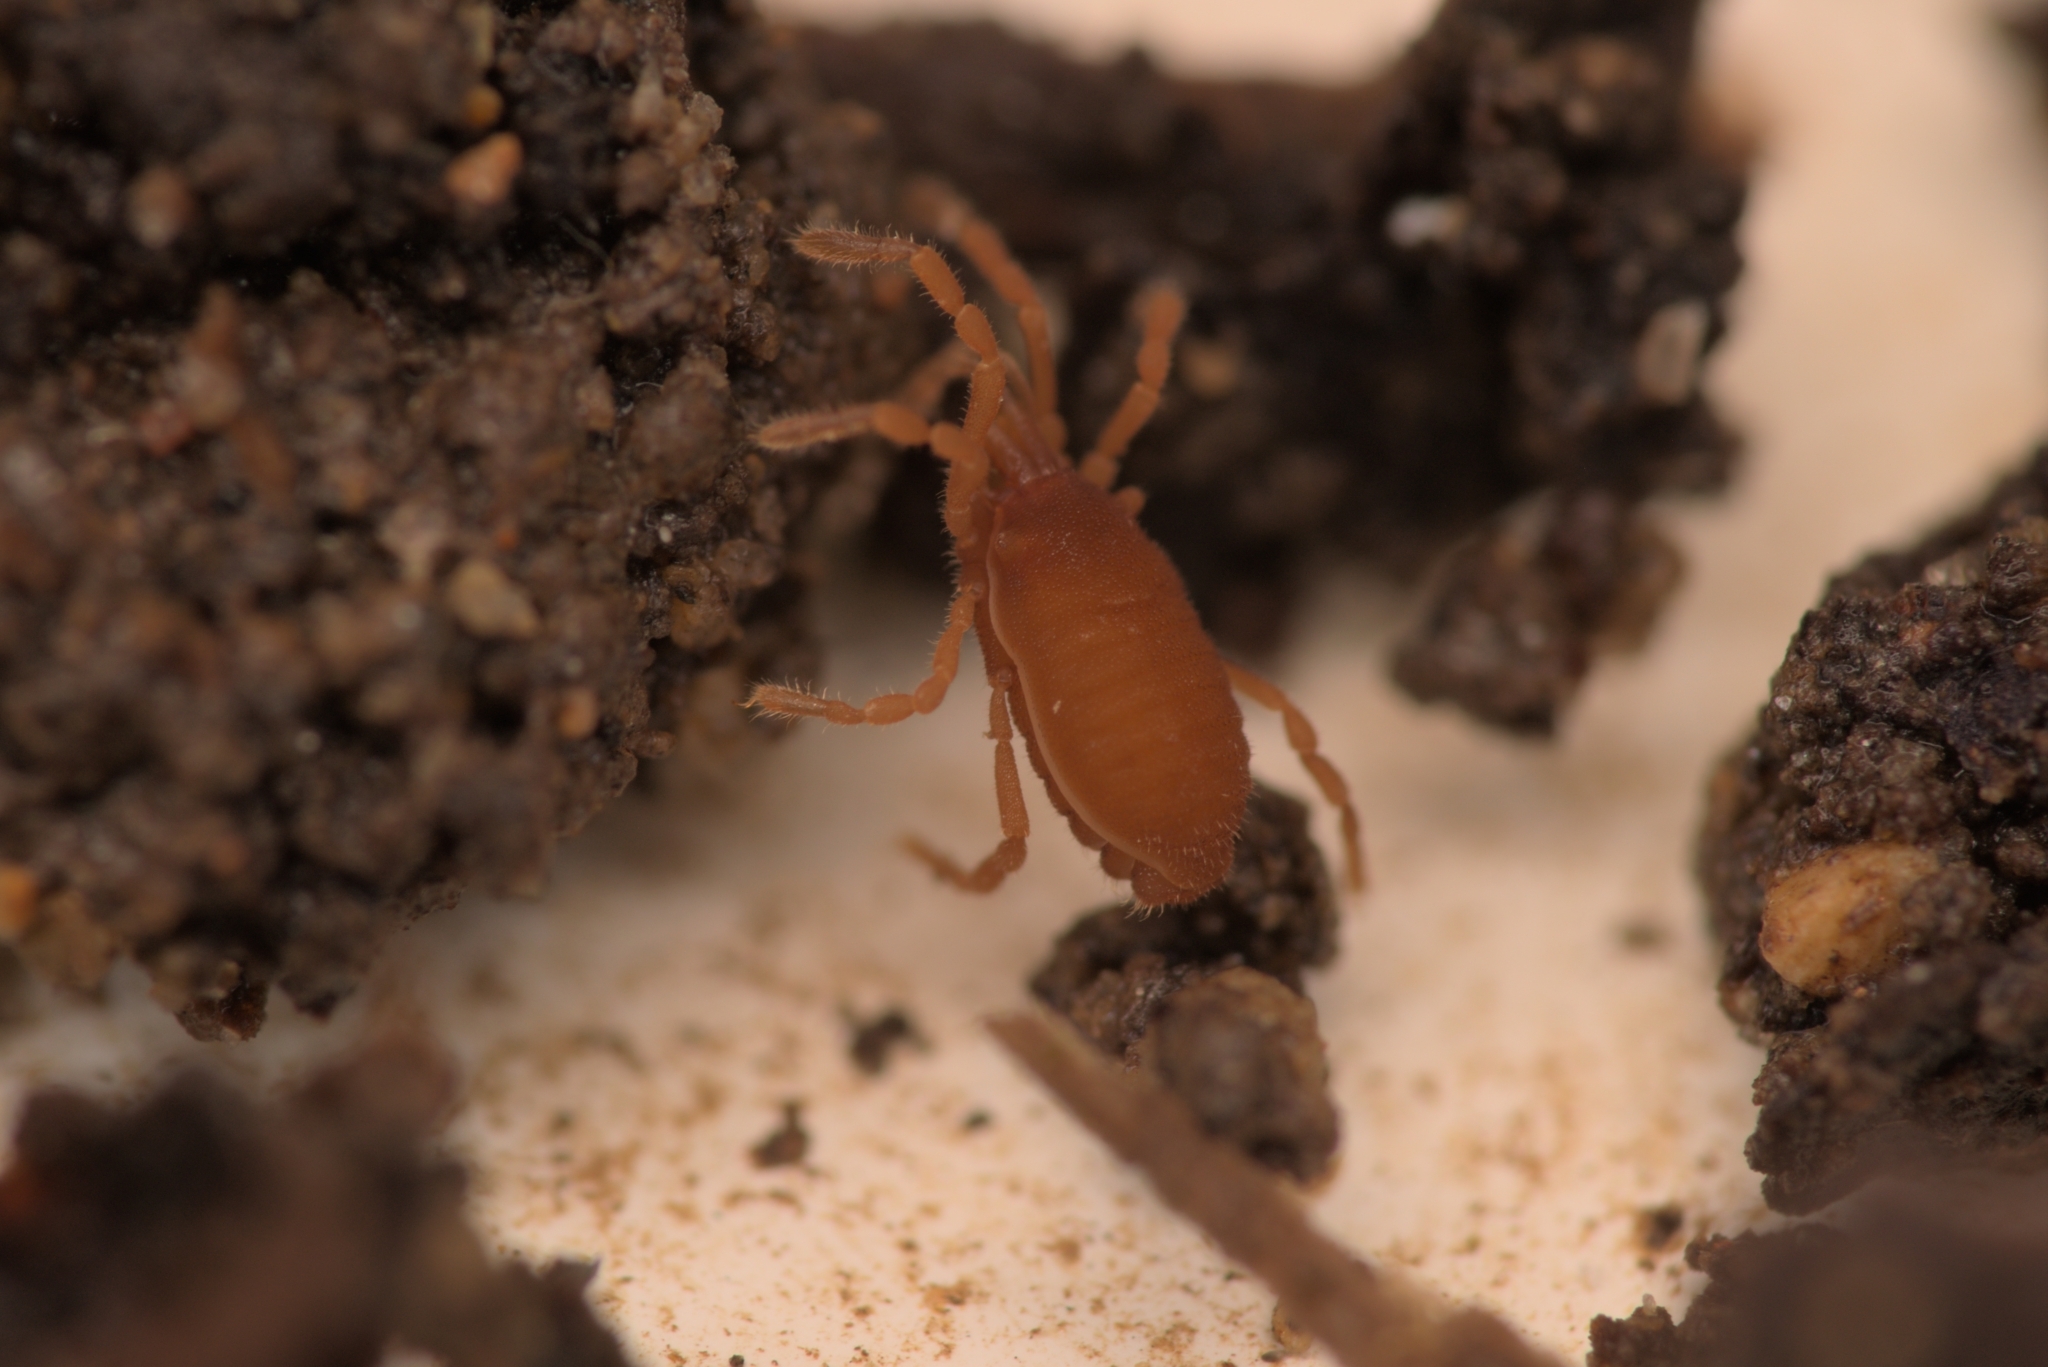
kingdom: Animalia
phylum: Arthropoda
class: Arachnida
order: Opiliones
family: Sironidae
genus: Siro
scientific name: Siro rubens
